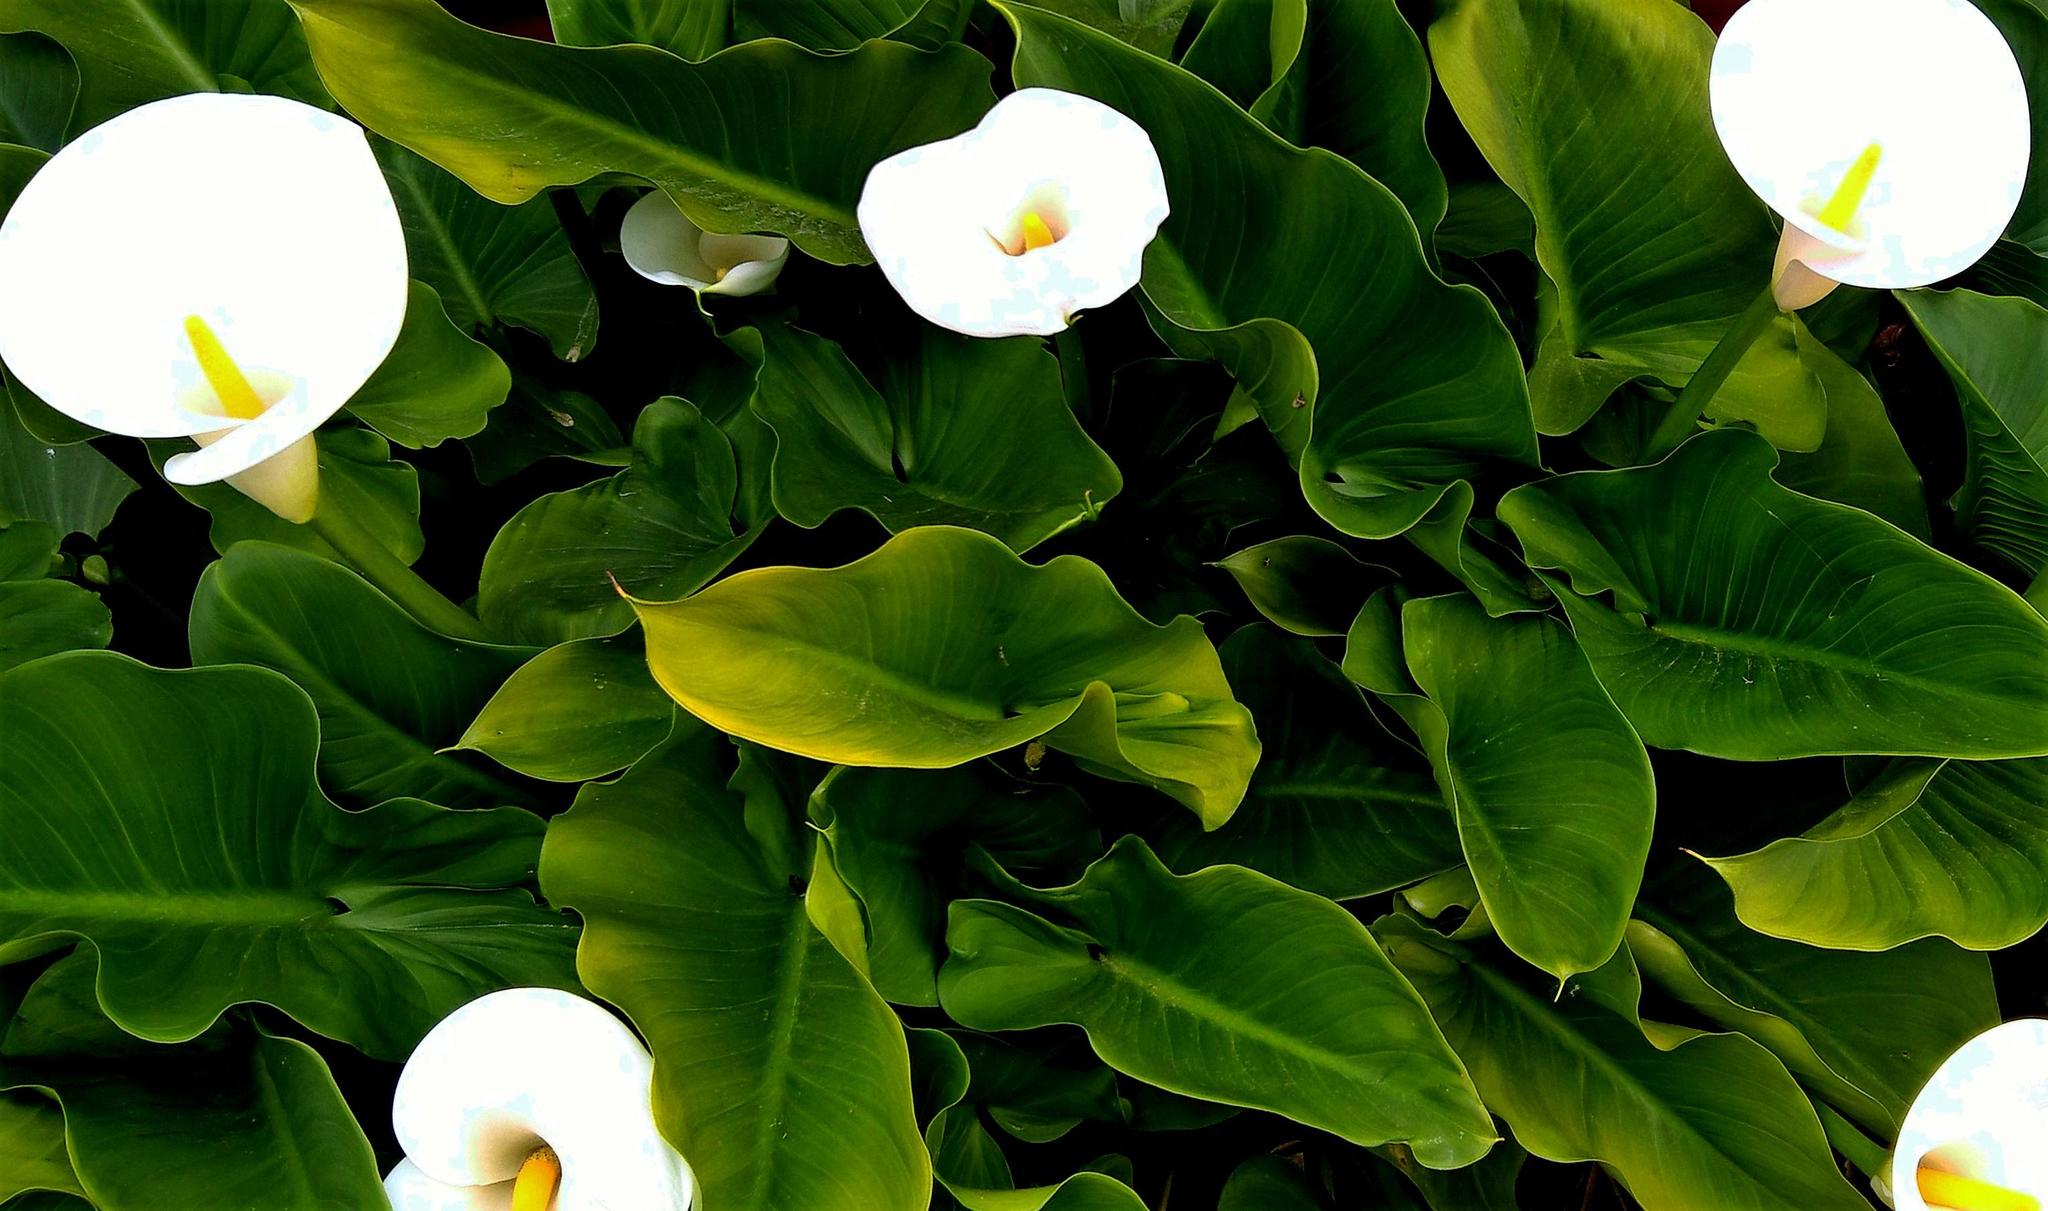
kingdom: Plantae
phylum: Tracheophyta
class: Liliopsida
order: Alismatales
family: Araceae
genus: Zantedeschia
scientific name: Zantedeschia aethiopica
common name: Altar-lily
